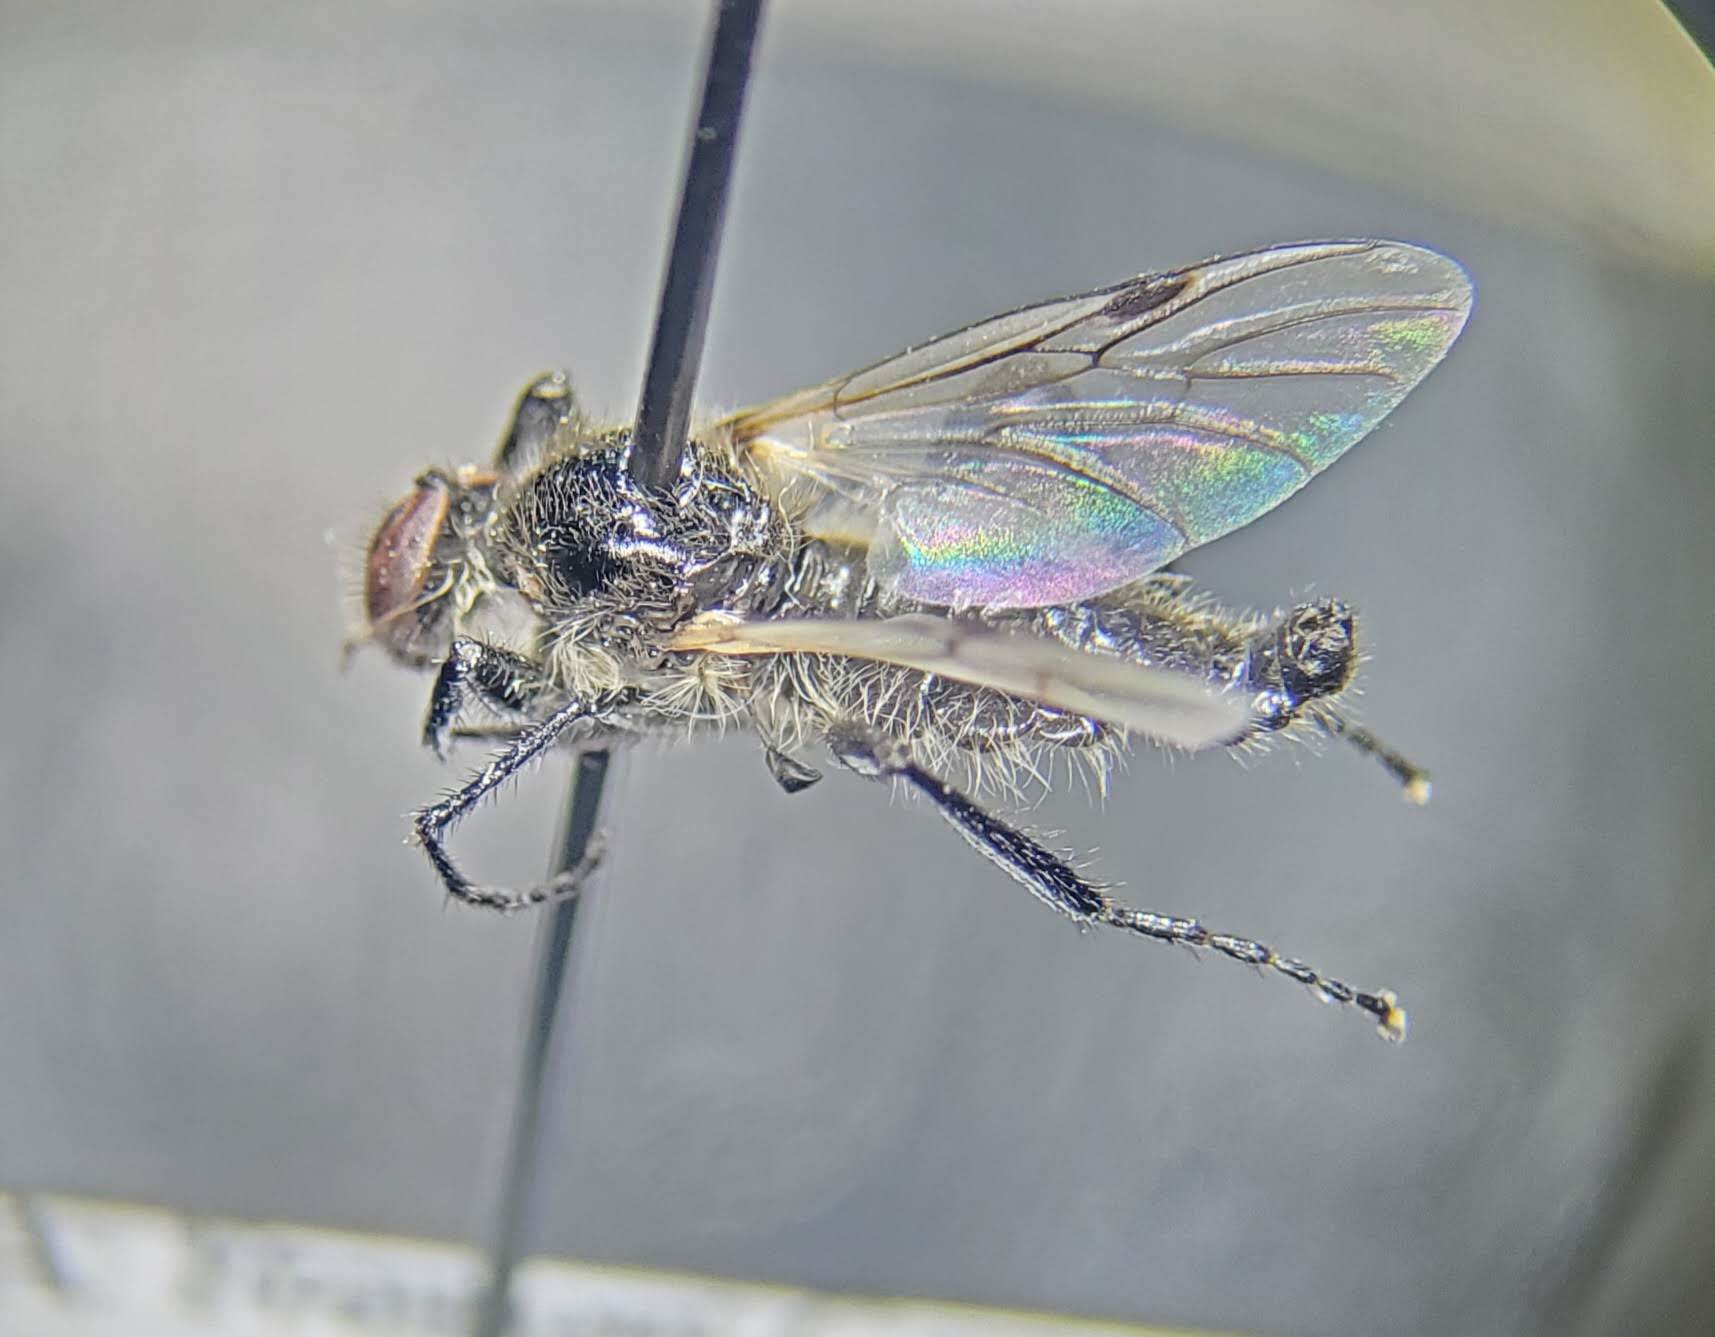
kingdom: Animalia
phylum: Arthropoda
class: Insecta
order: Diptera
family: Bibionidae
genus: Bibio
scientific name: Bibio albipennis
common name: White-winged march fly
